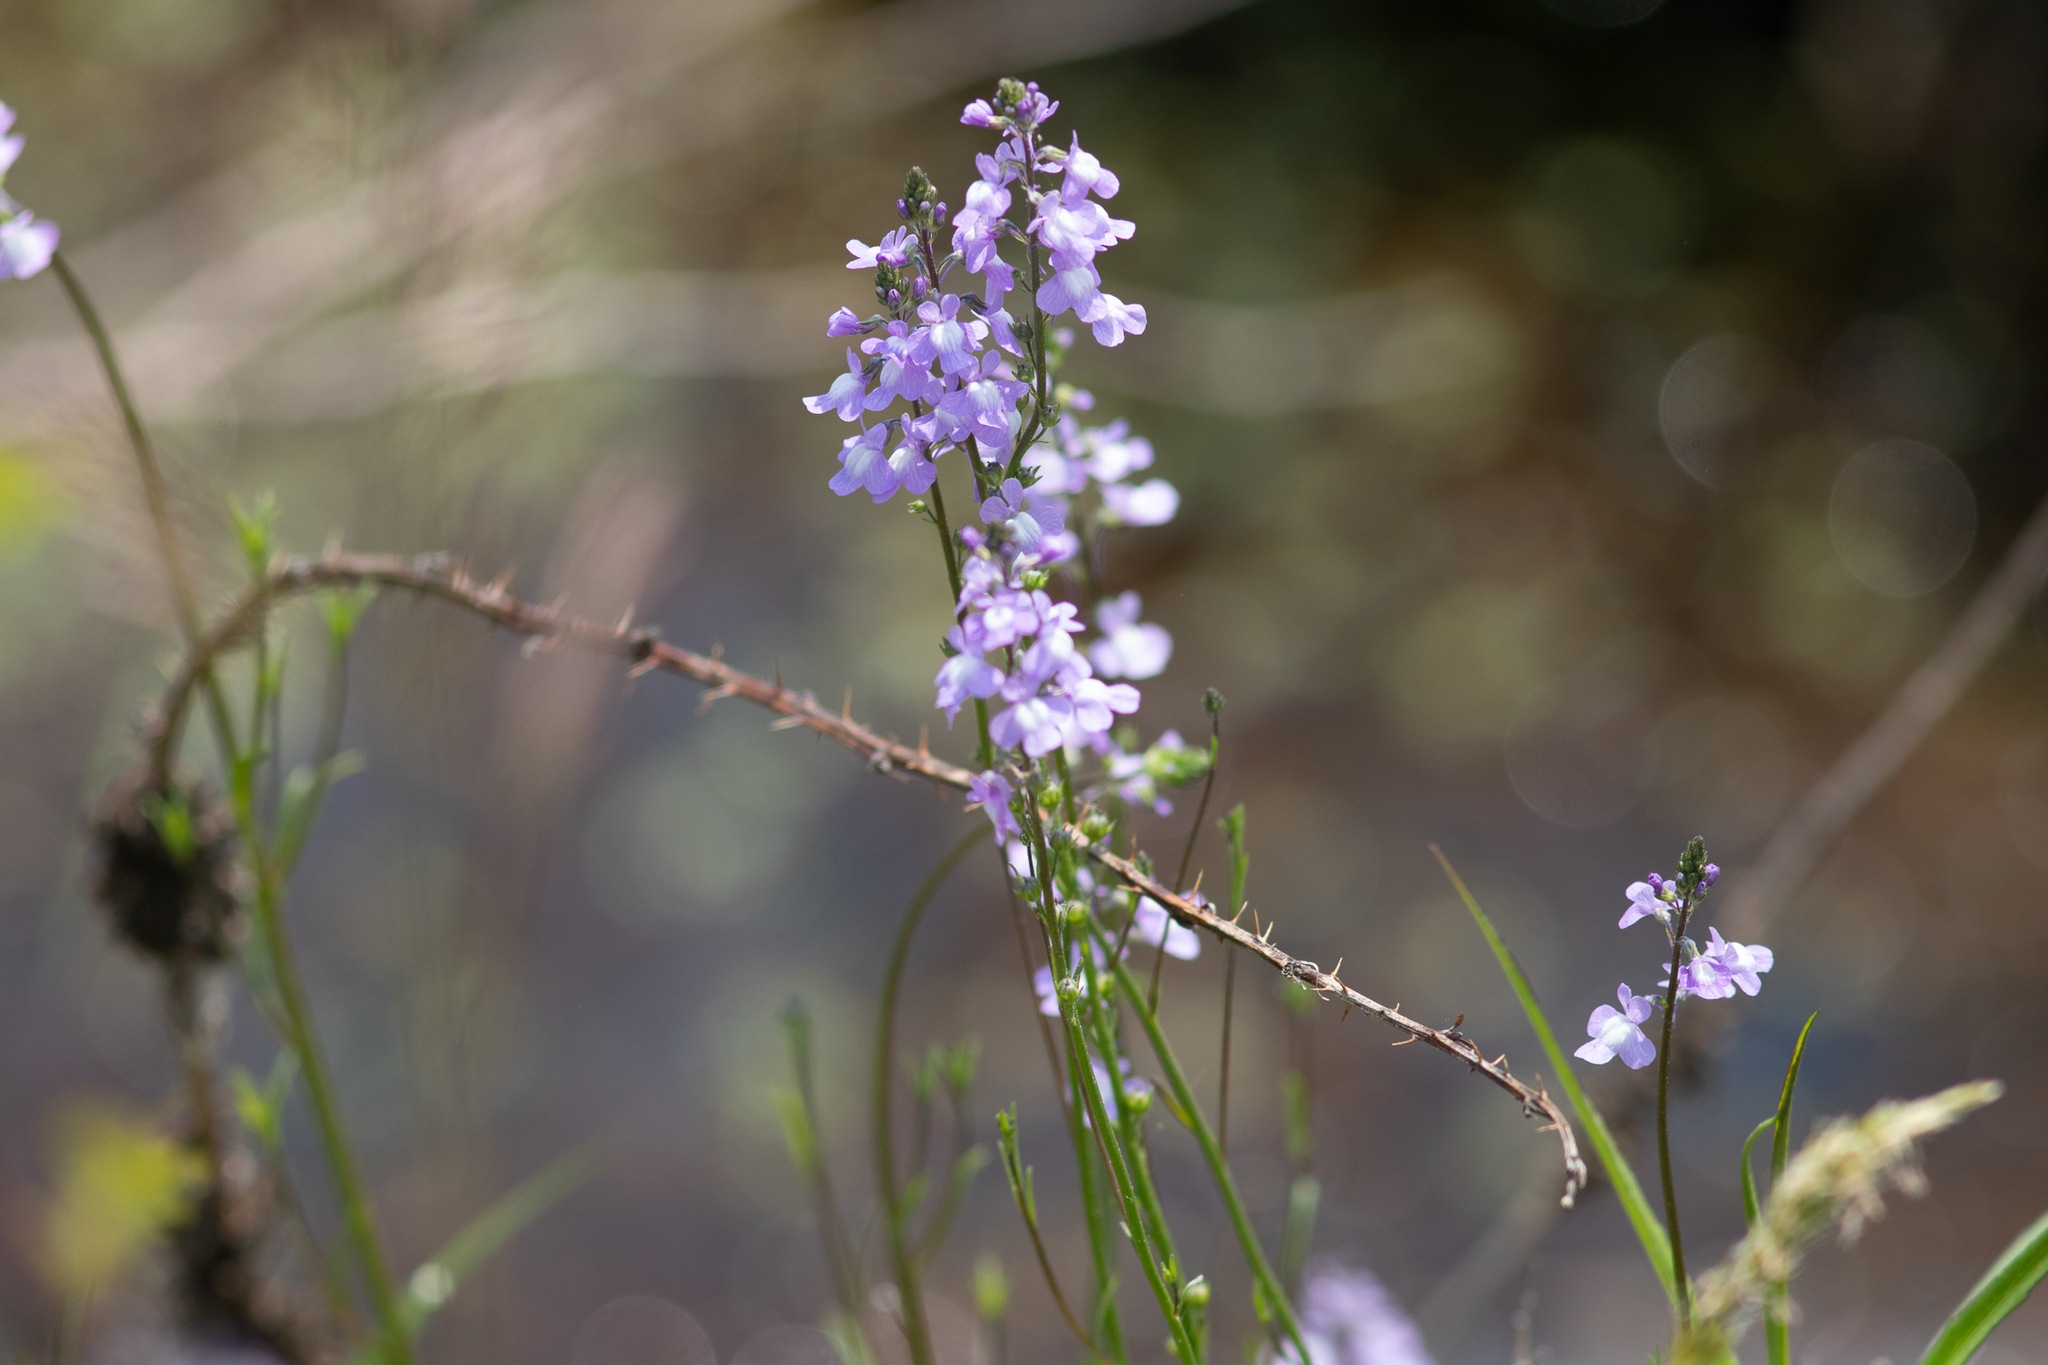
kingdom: Plantae
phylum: Tracheophyta
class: Magnoliopsida
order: Lamiales
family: Plantaginaceae
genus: Nuttallanthus
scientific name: Nuttallanthus canadensis
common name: Blue toadflax
